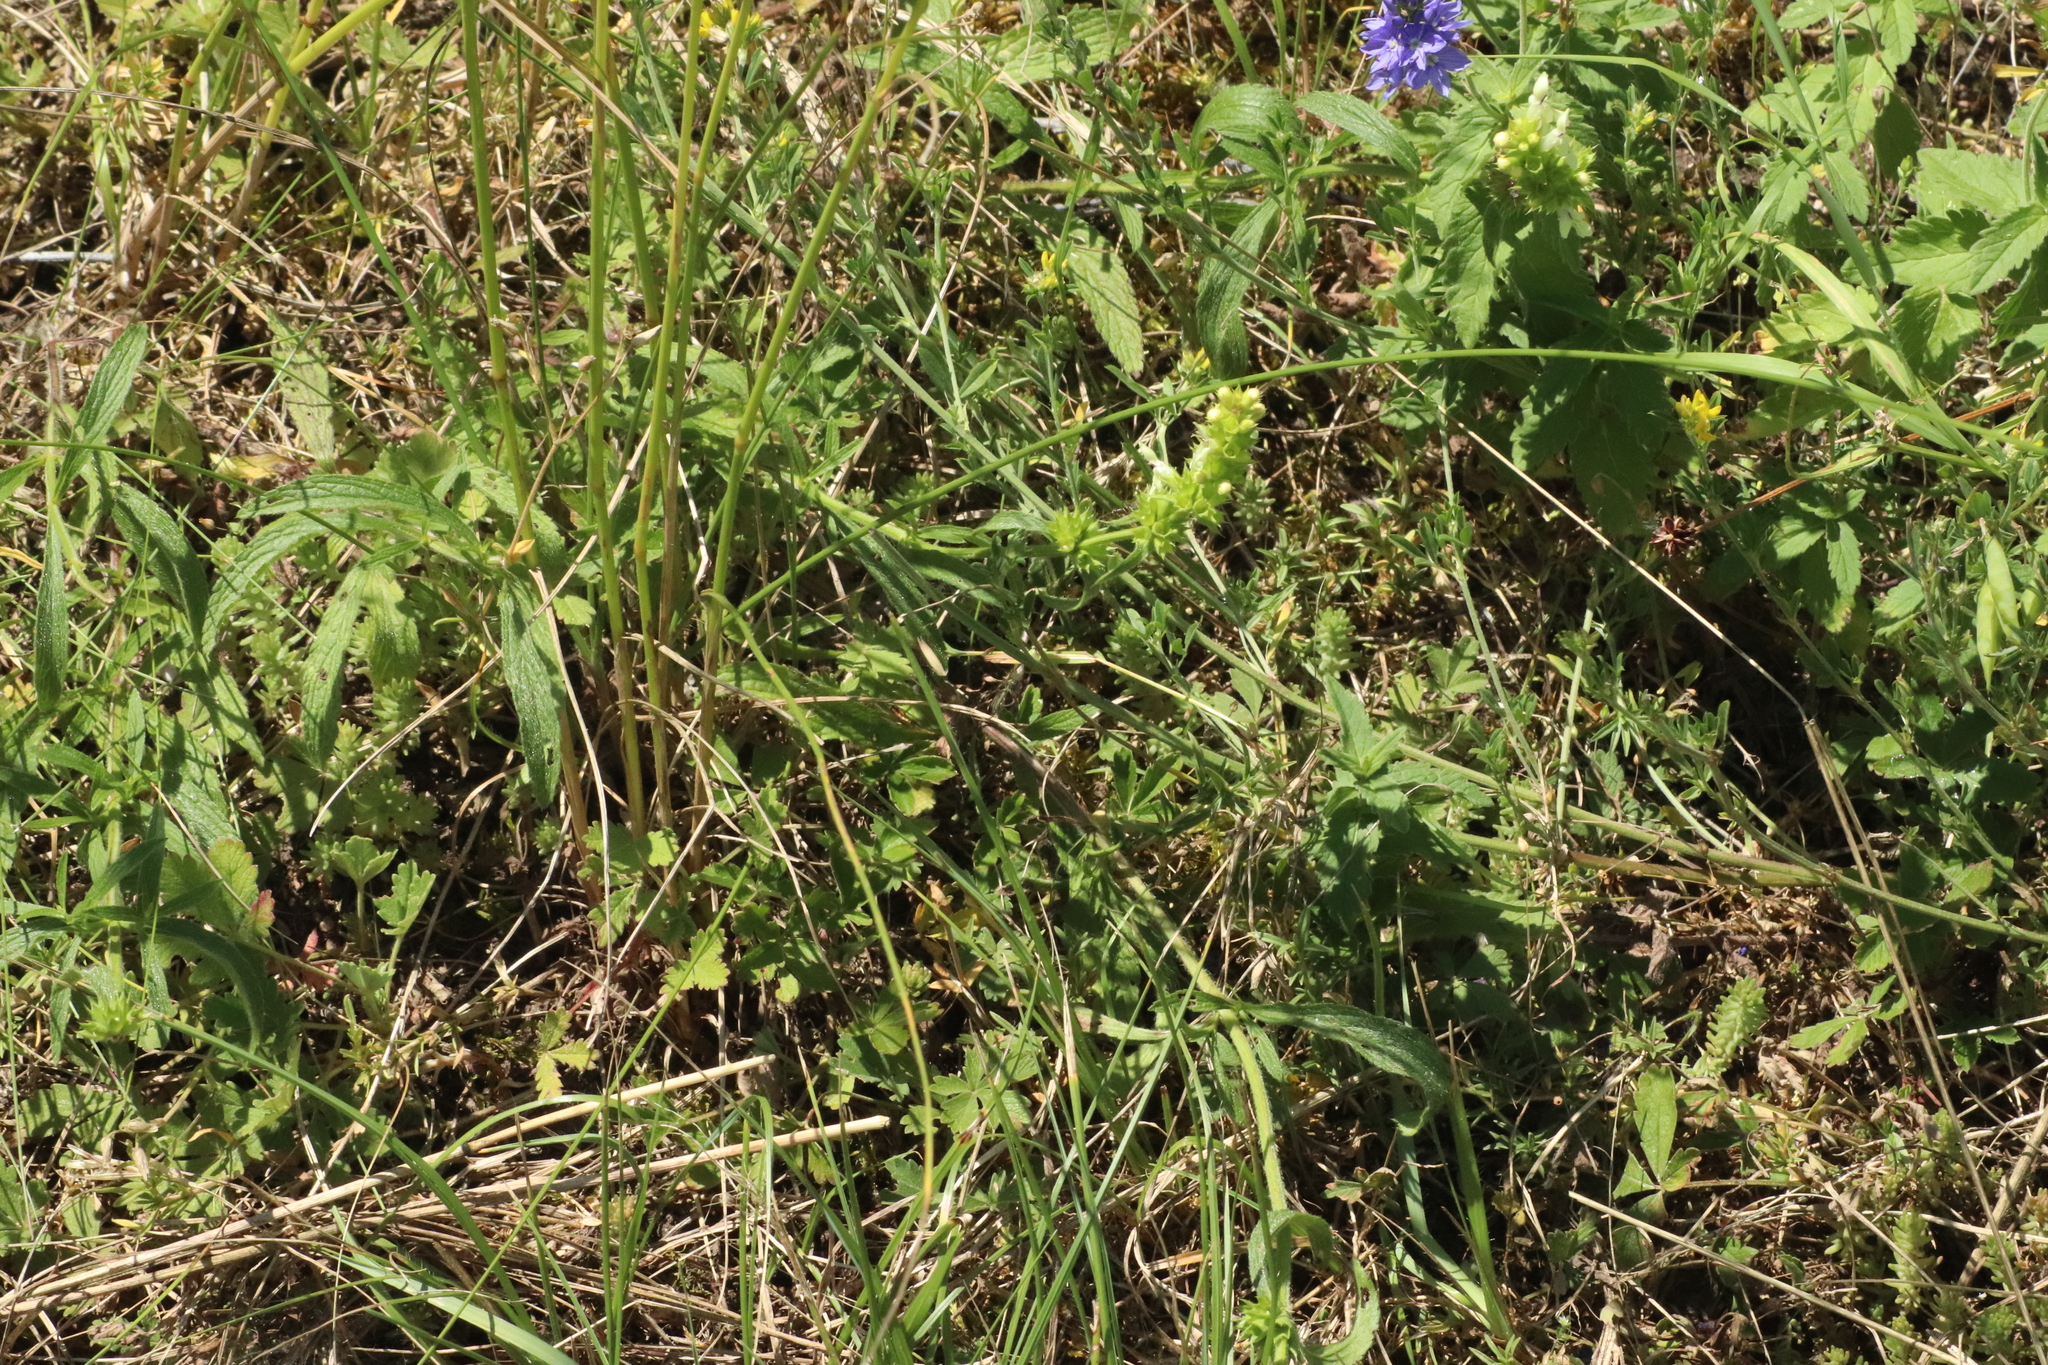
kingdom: Plantae
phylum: Tracheophyta
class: Magnoliopsida
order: Lamiales
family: Lamiaceae
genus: Stachys
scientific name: Stachys recta
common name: Perennial yellow-woundwort
